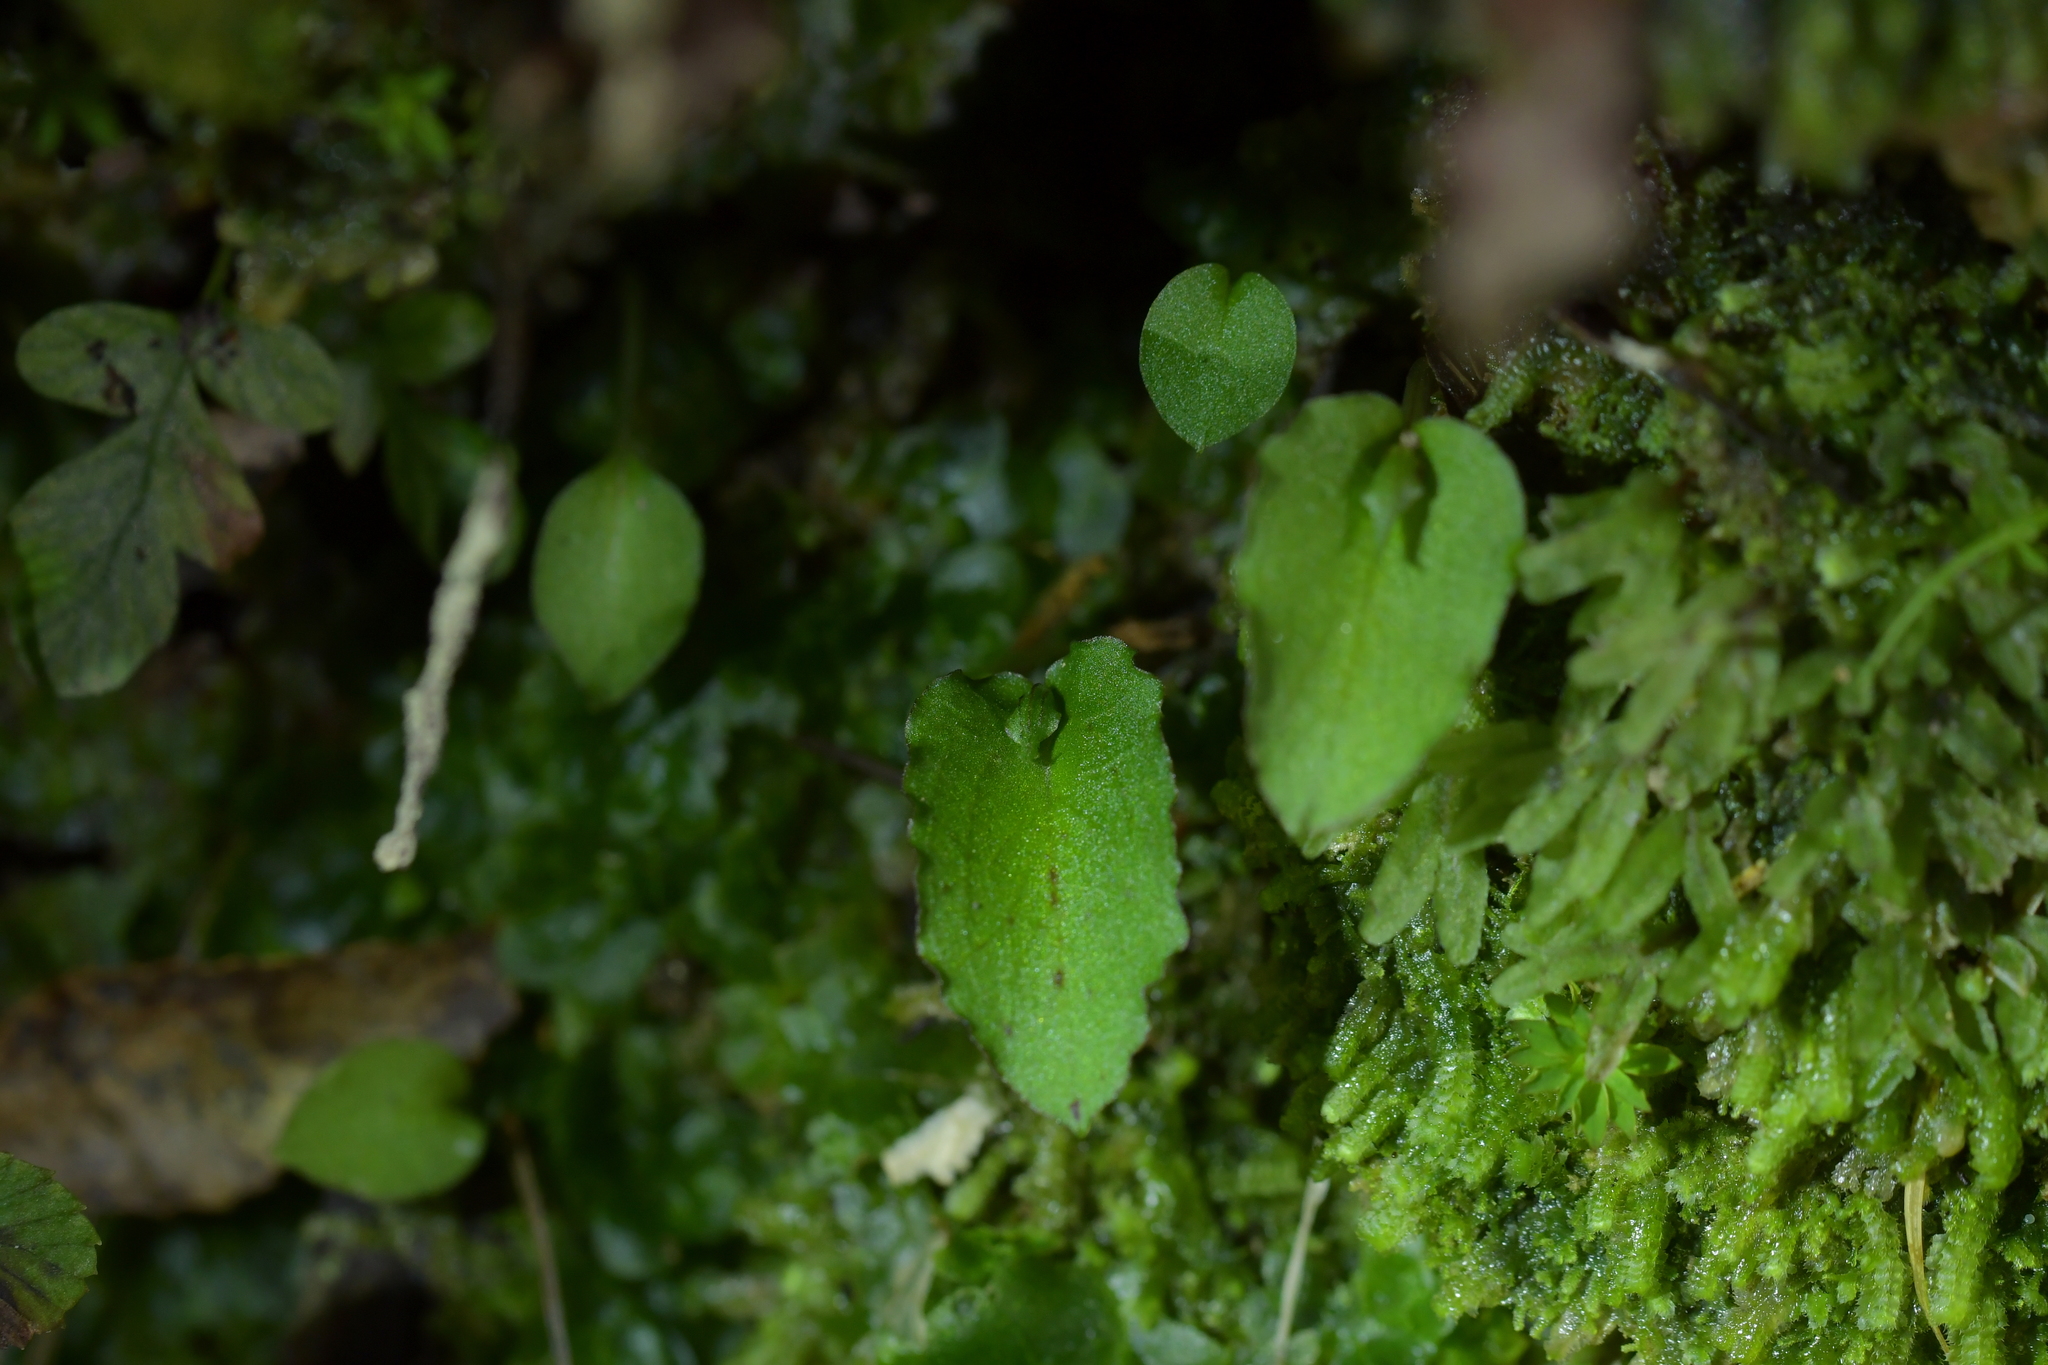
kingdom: Plantae
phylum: Tracheophyta
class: Liliopsida
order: Asparagales
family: Orchidaceae
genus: Corybas
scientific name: Corybas oblongus
